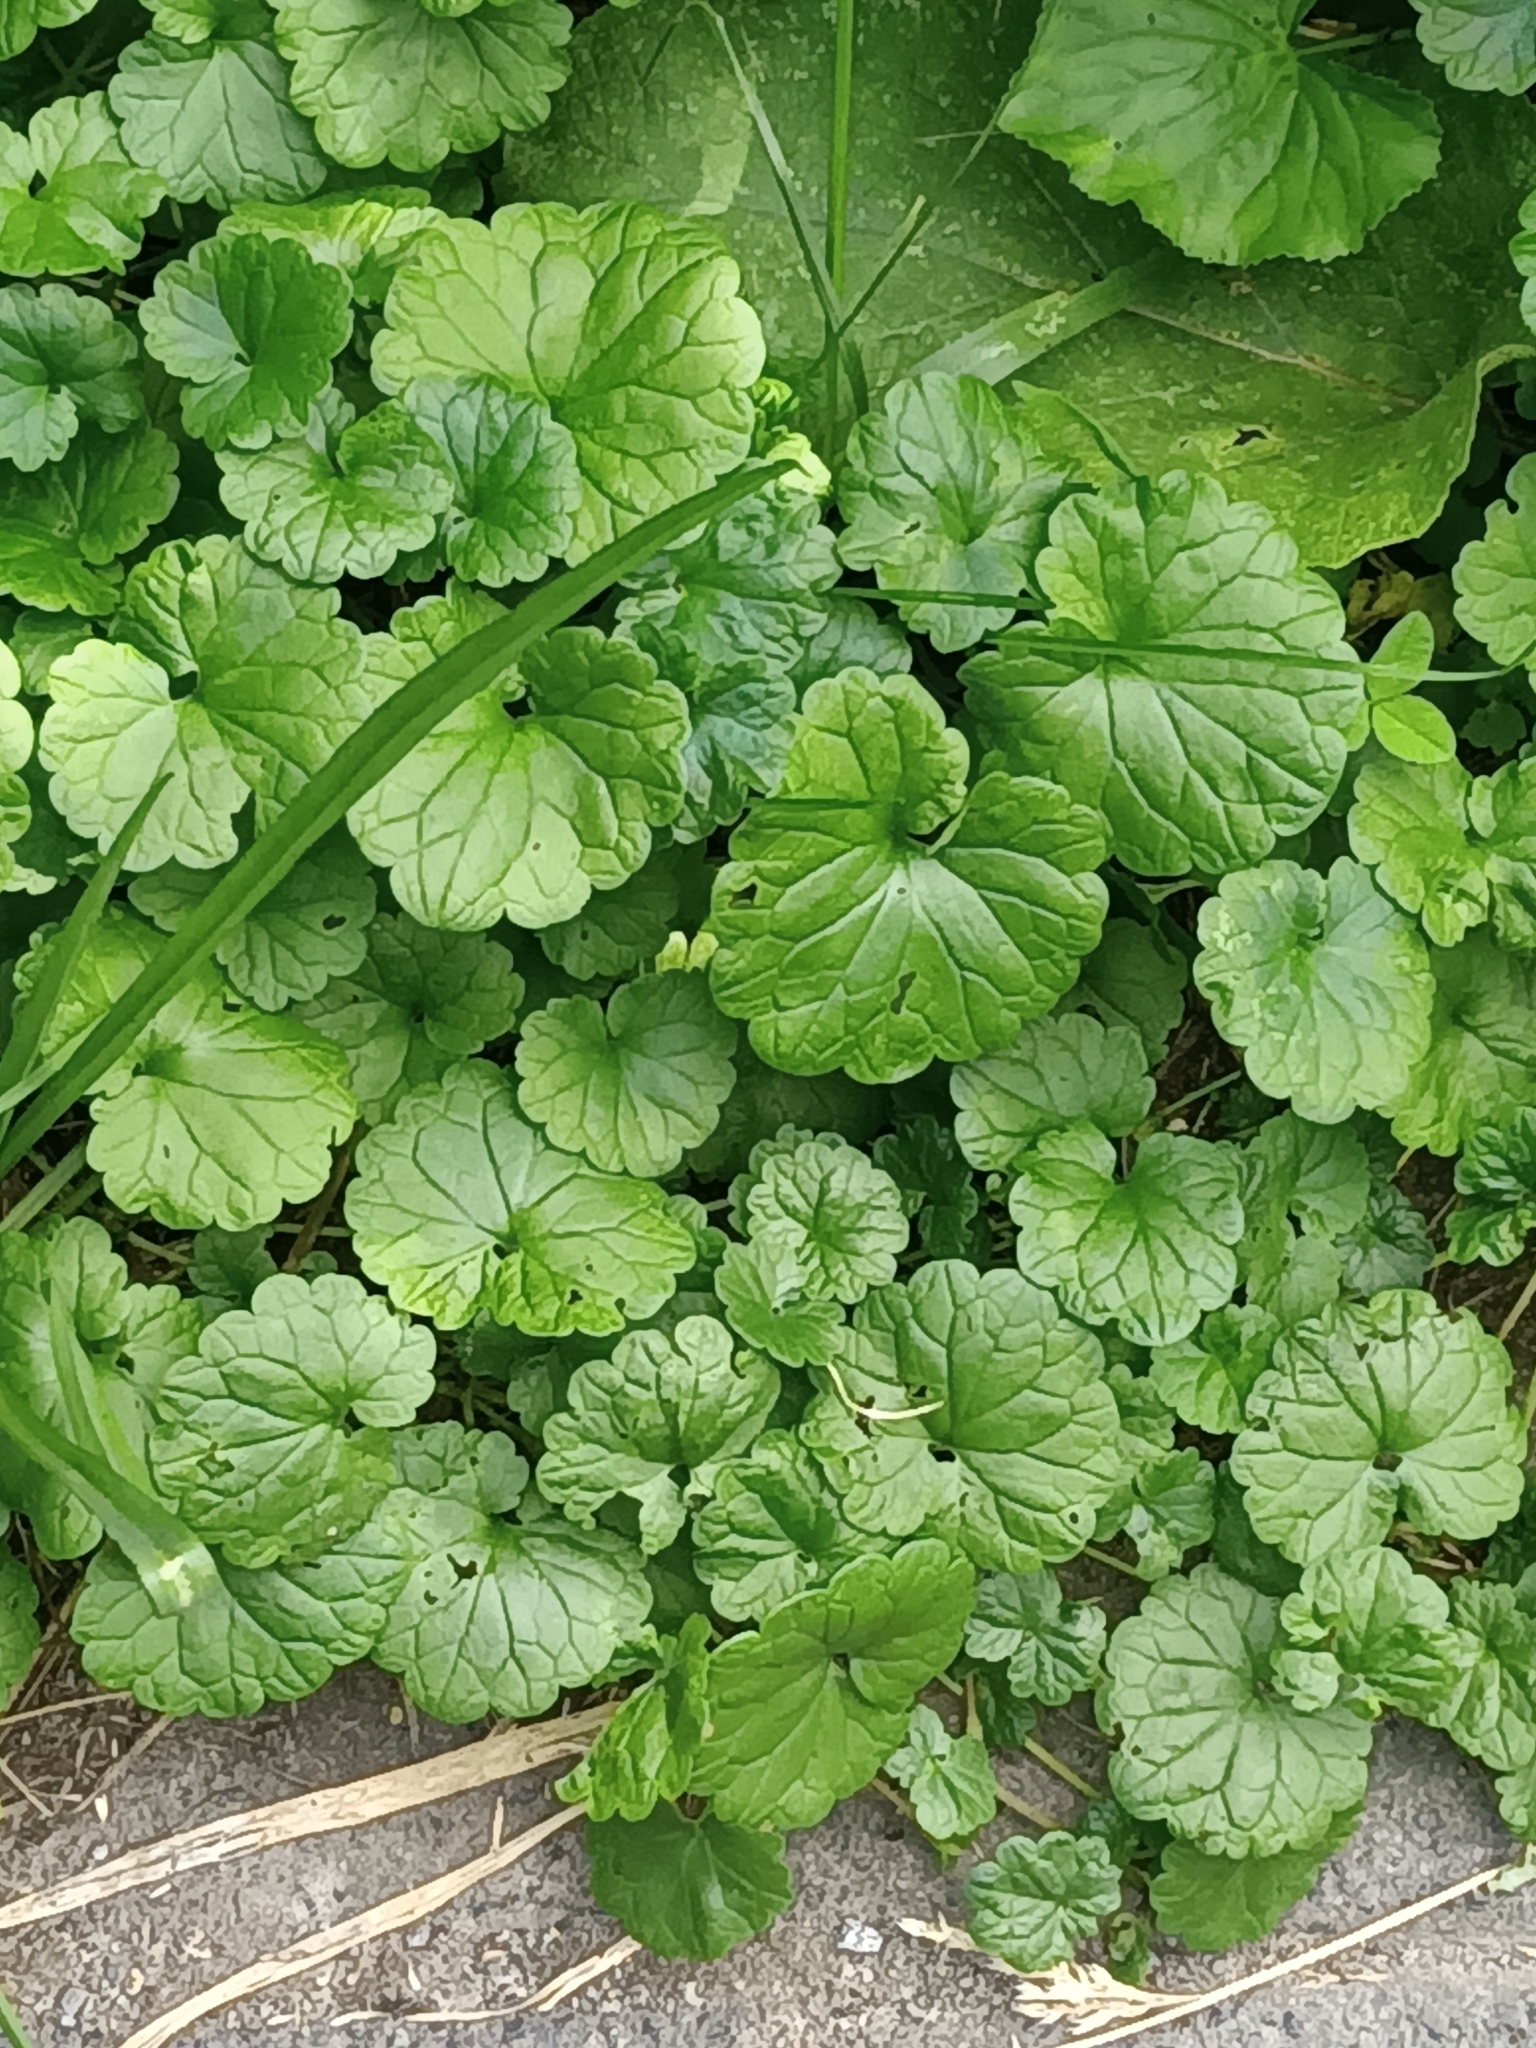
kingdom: Plantae
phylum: Tracheophyta
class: Magnoliopsida
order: Lamiales
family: Lamiaceae
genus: Glechoma
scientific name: Glechoma hederacea
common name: Ground ivy
